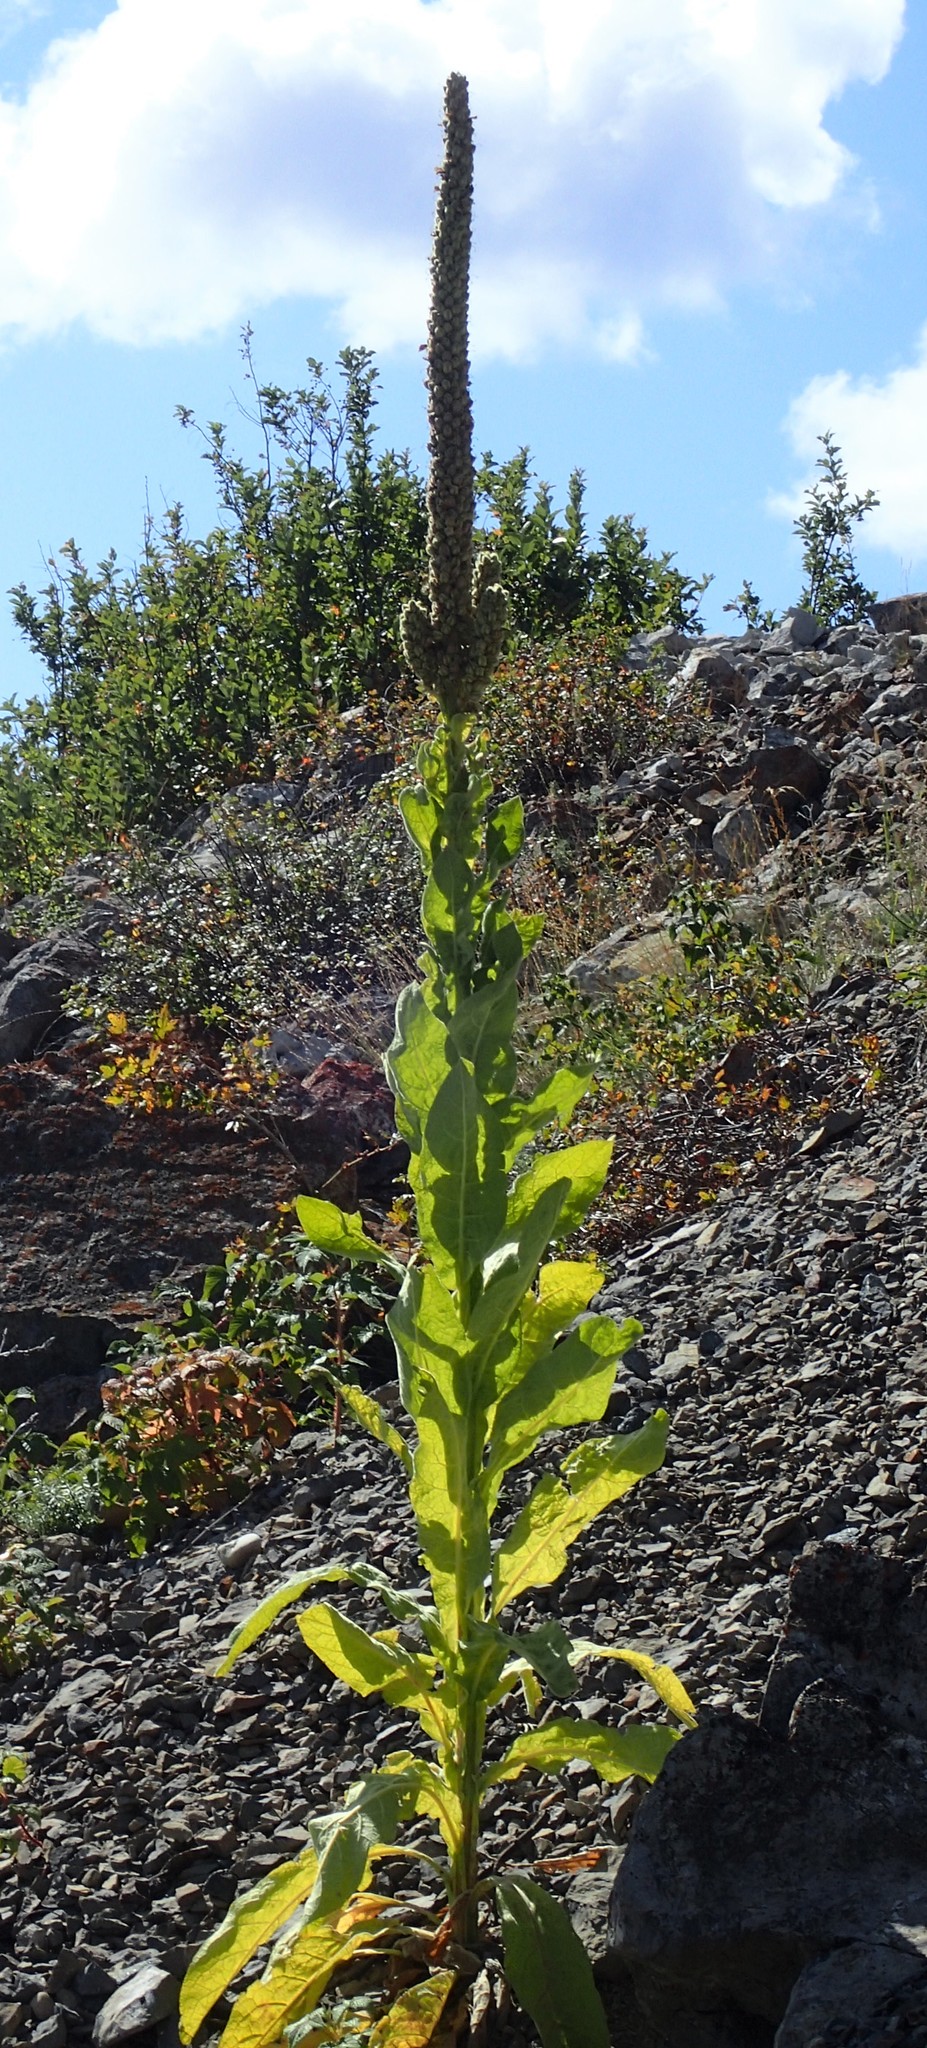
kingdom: Plantae
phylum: Tracheophyta
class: Magnoliopsida
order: Lamiales
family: Scrophulariaceae
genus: Verbascum
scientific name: Verbascum thapsus
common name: Common mullein
